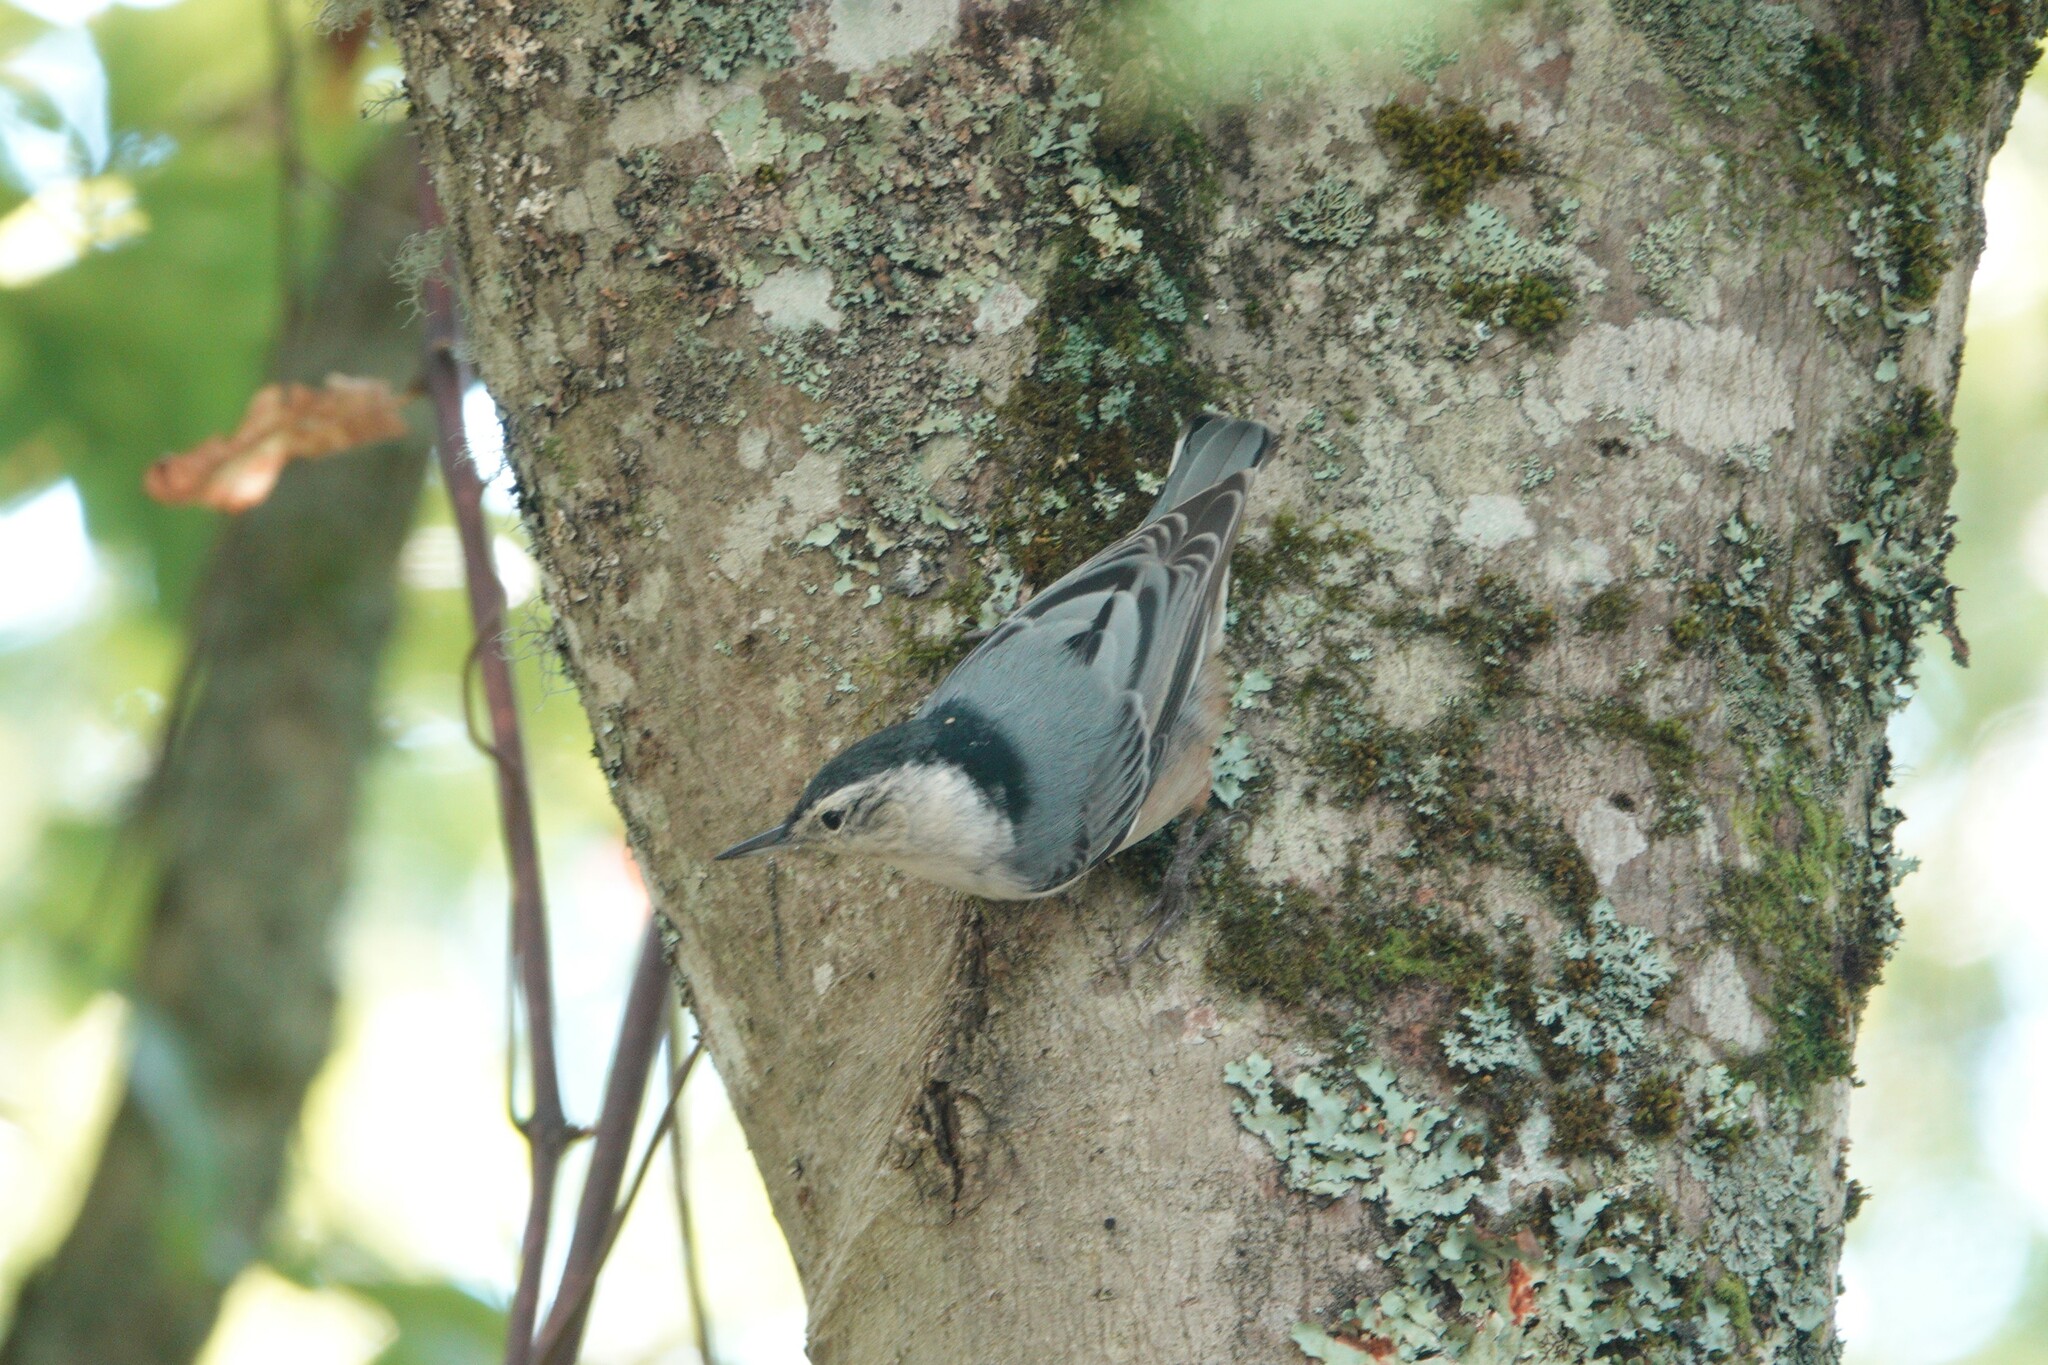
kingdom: Animalia
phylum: Chordata
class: Aves
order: Passeriformes
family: Sittidae
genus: Sitta
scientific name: Sitta carolinensis
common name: White-breasted nuthatch
